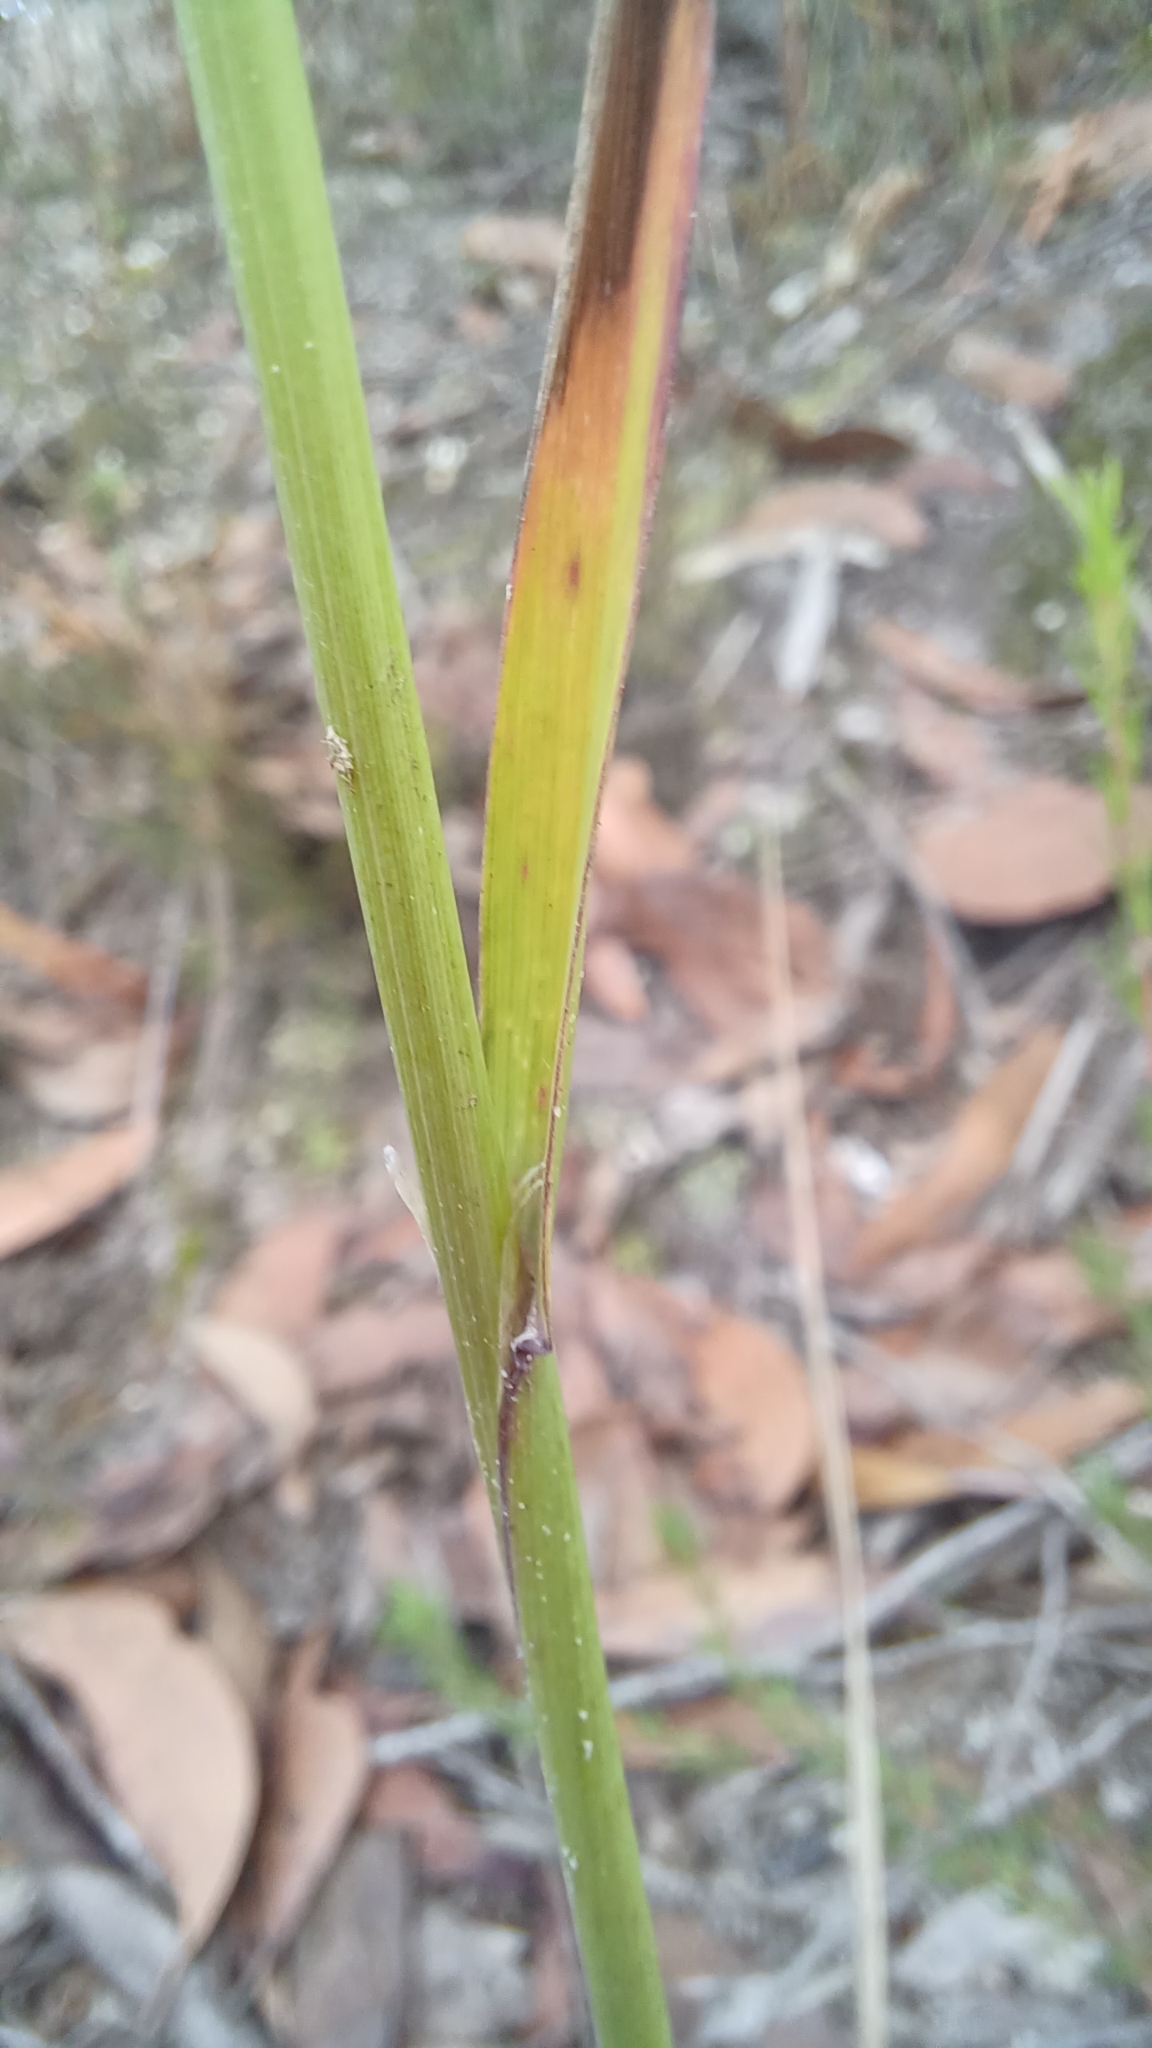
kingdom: Plantae
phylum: Tracheophyta
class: Liliopsida
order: Poales
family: Poaceae
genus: Calamagrostis
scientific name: Calamagrostis quadriseta
